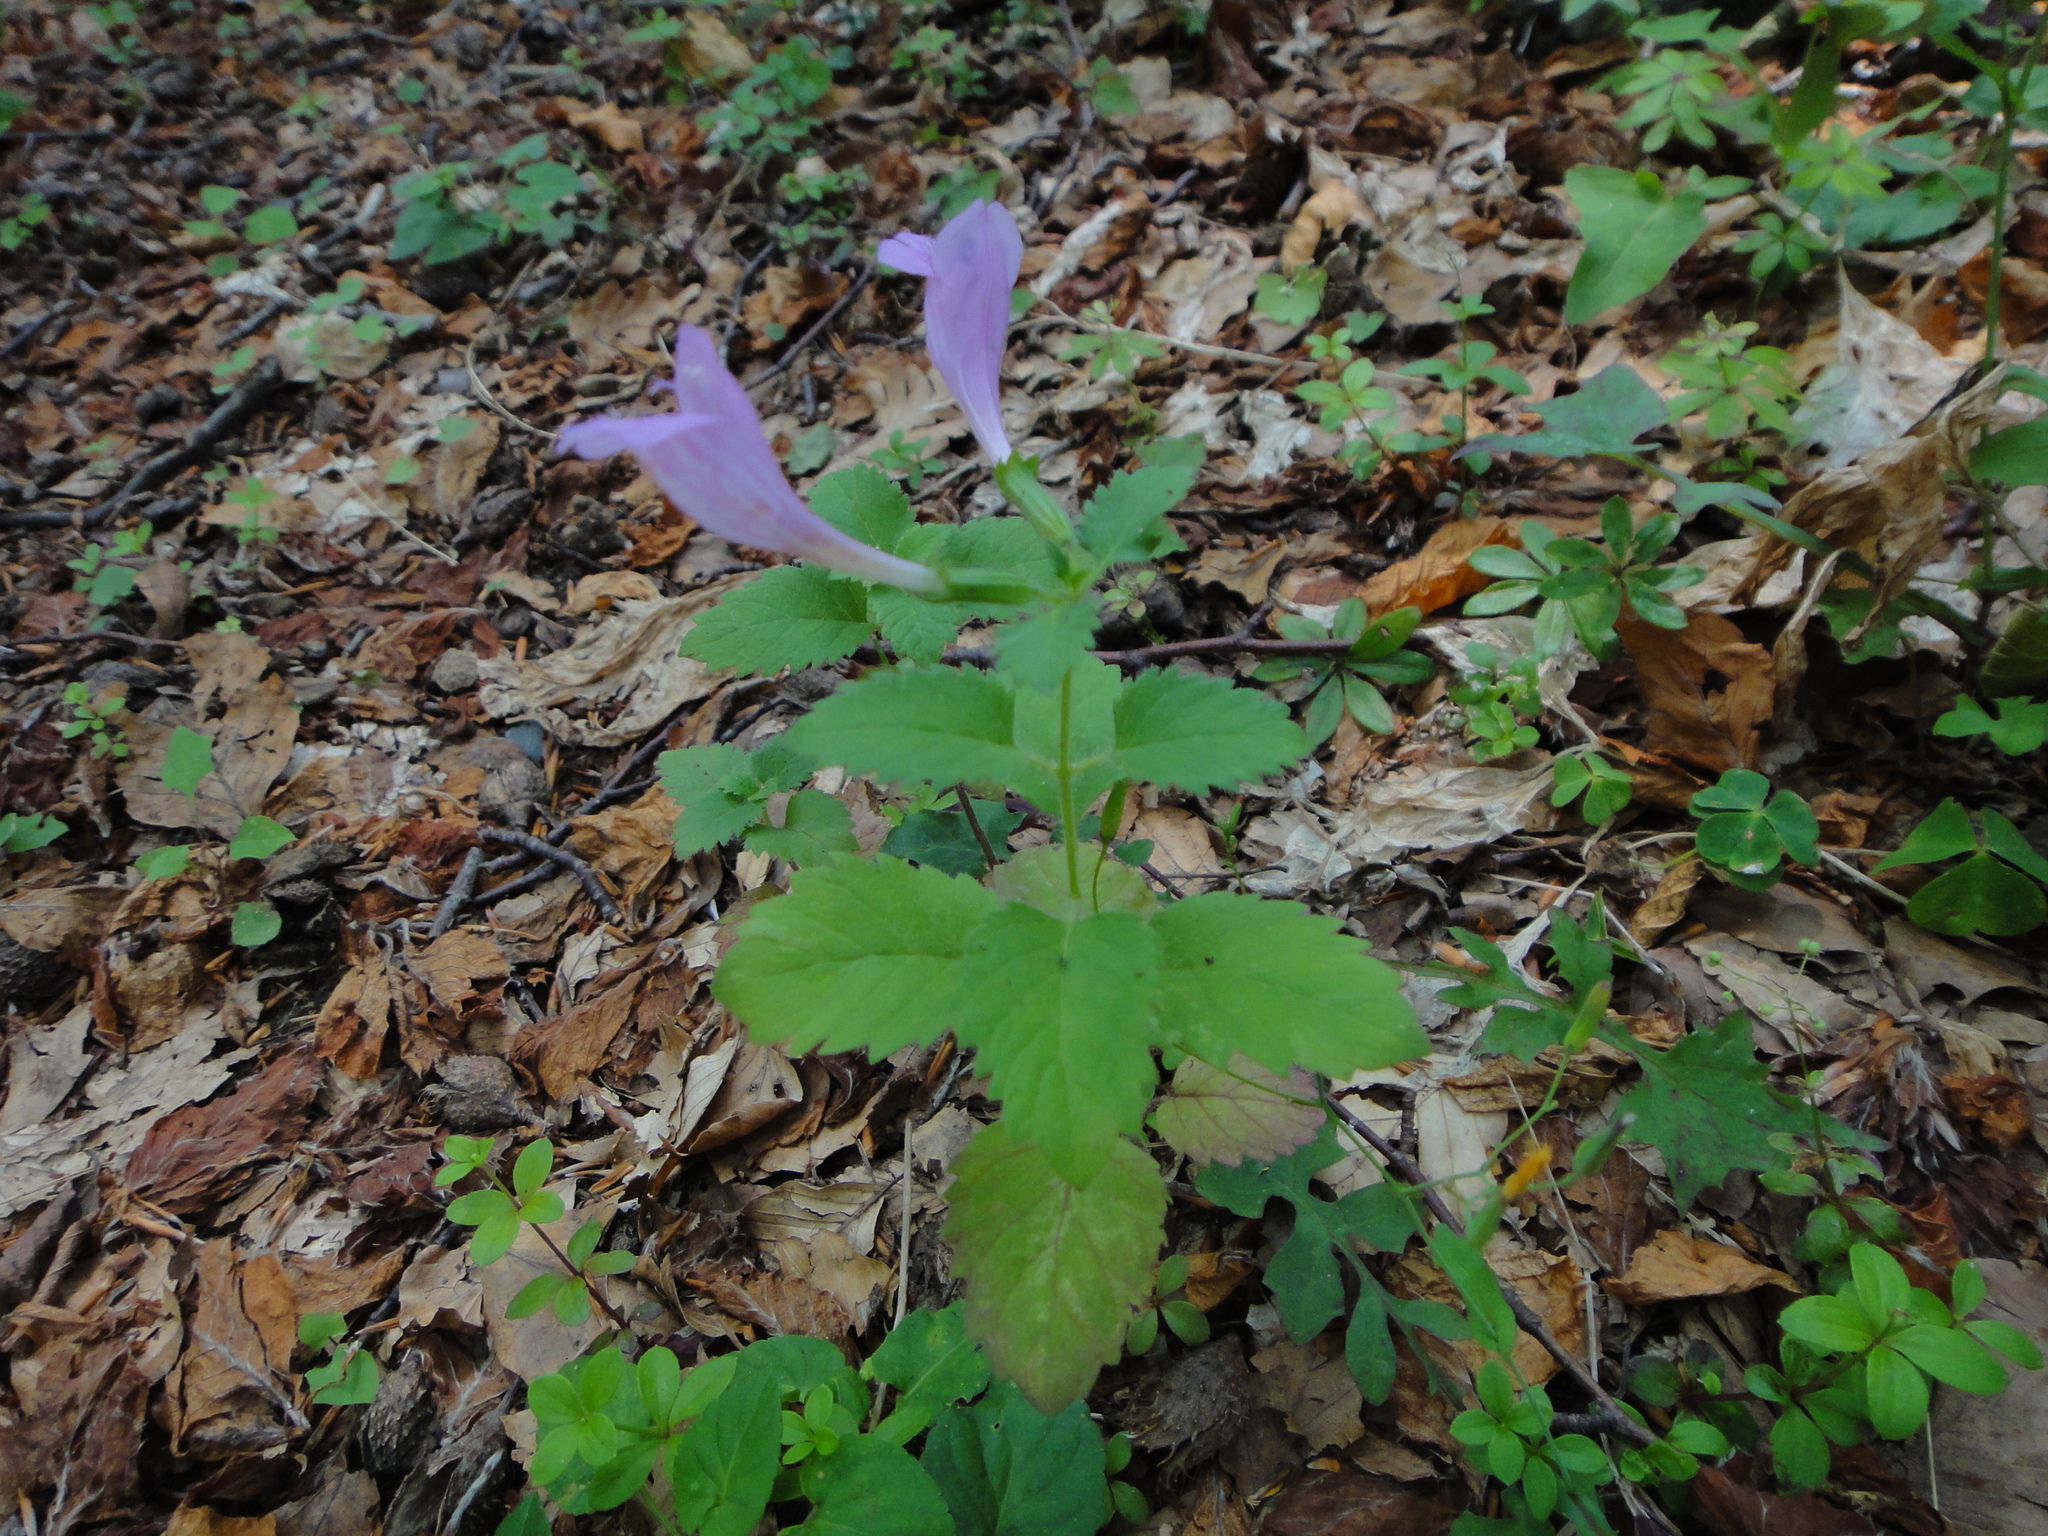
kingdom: Plantae
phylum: Tracheophyta
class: Magnoliopsida
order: Lamiales
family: Lamiaceae
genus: Clinopodium
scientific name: Clinopodium grandiflorum
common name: Greater calamint
